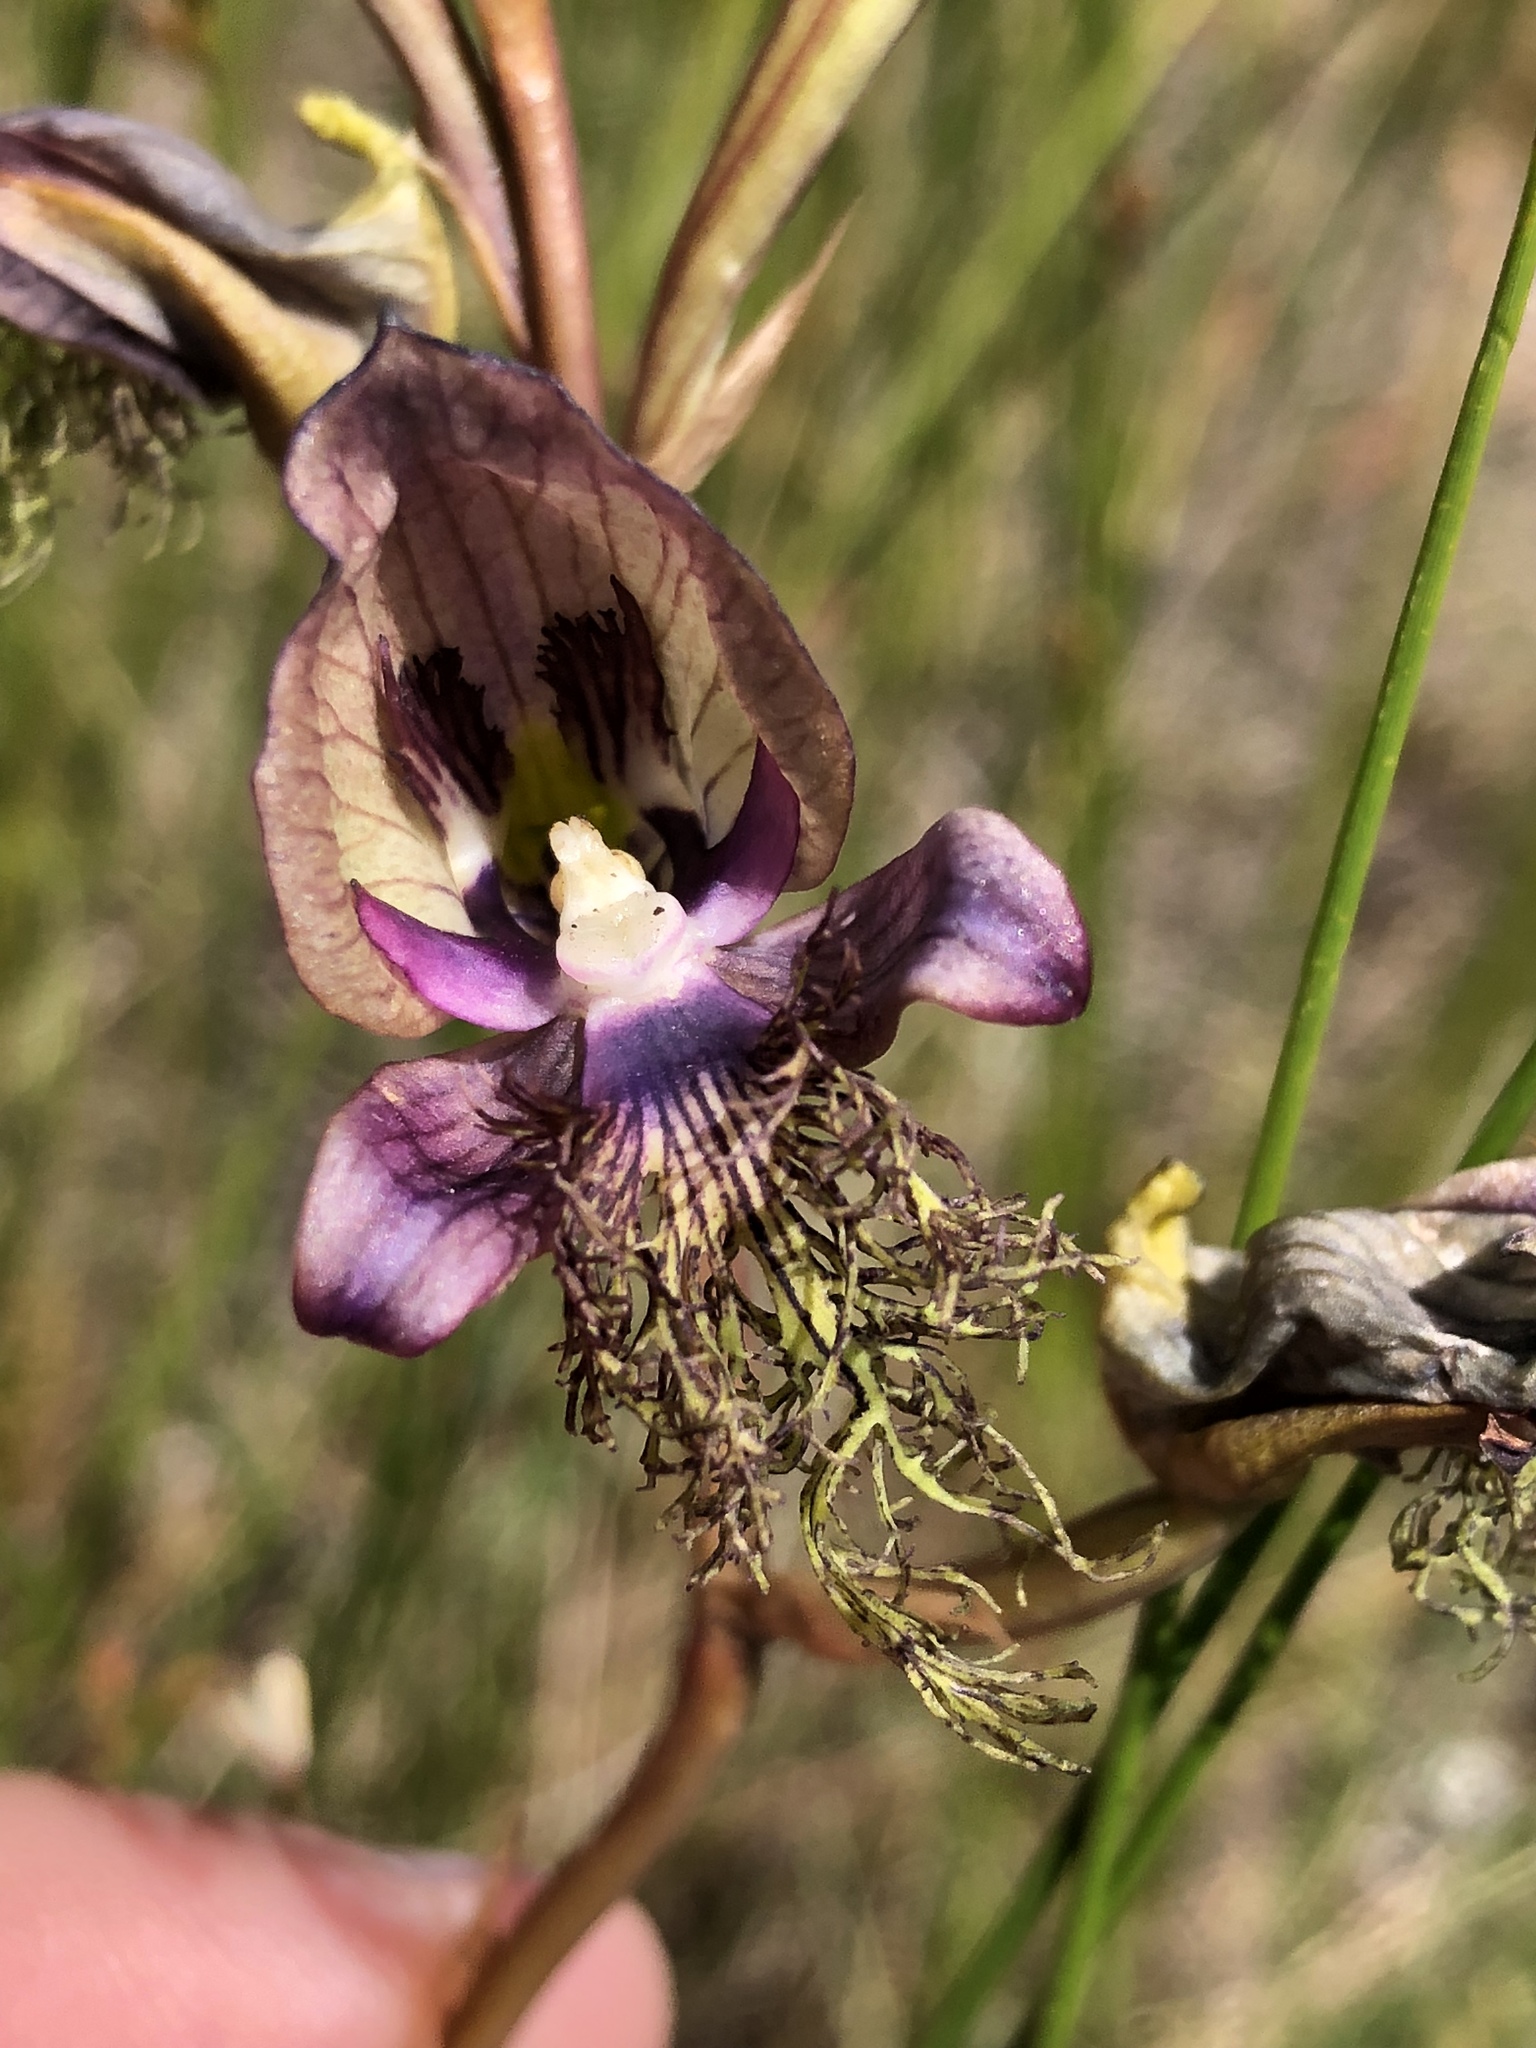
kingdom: Plantae
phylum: Tracheophyta
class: Liliopsida
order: Asparagales
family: Orchidaceae
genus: Disa
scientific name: Disa lugens
